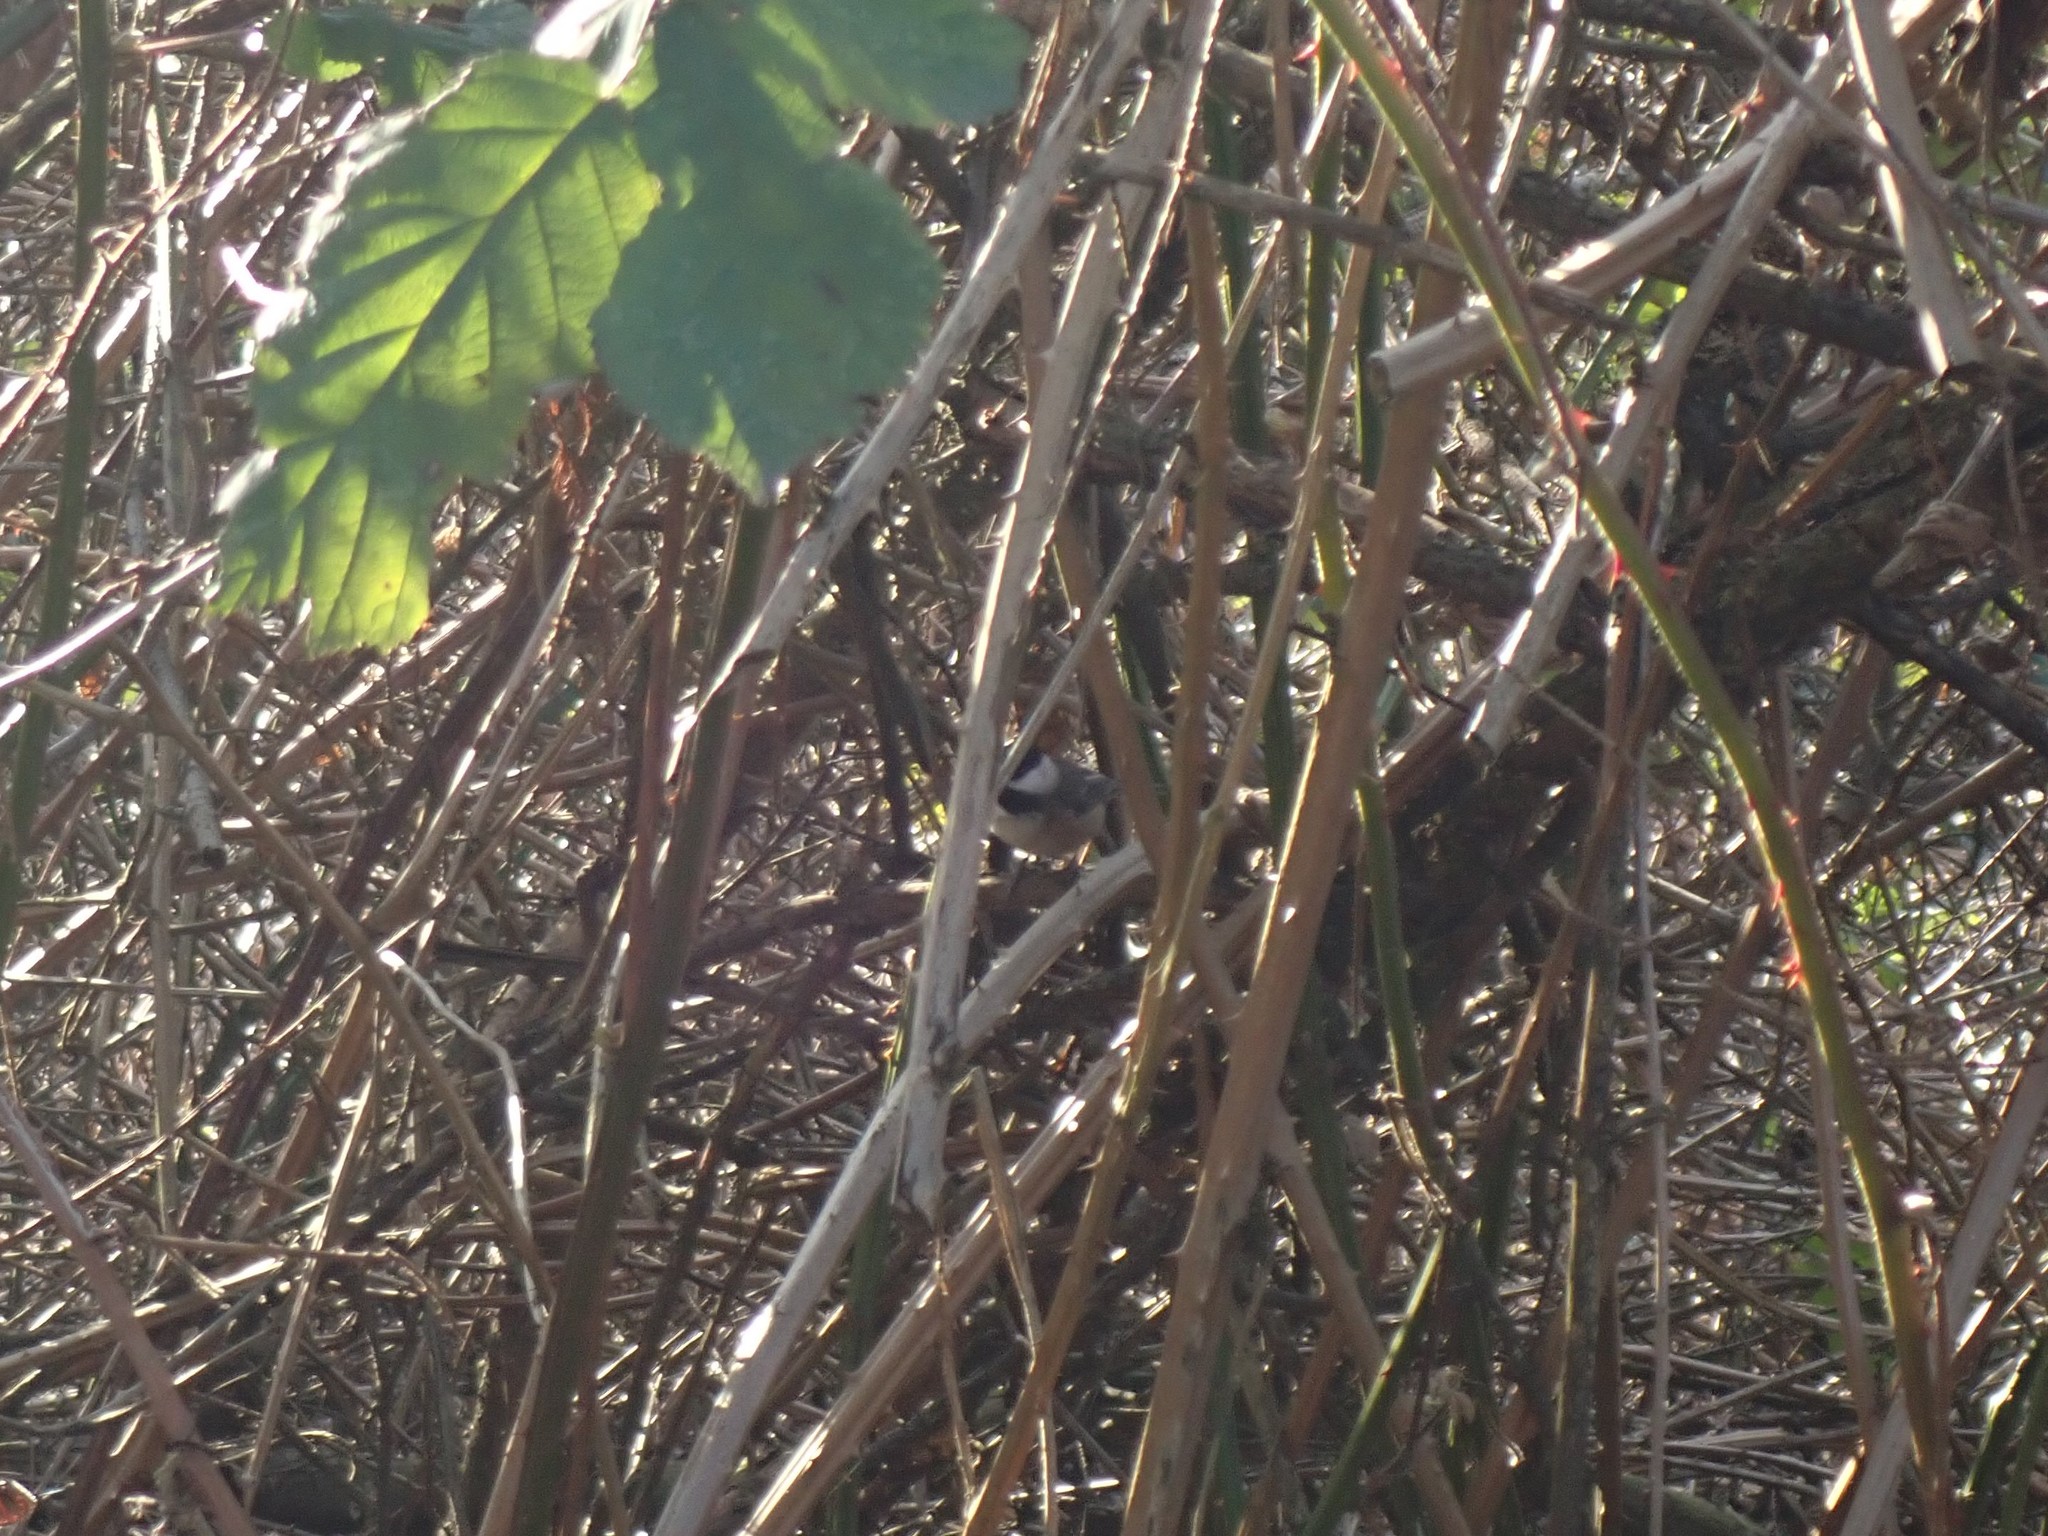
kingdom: Animalia
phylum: Chordata
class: Aves
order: Passeriformes
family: Paridae
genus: Poecile
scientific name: Poecile atricapillus
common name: Black-capped chickadee
